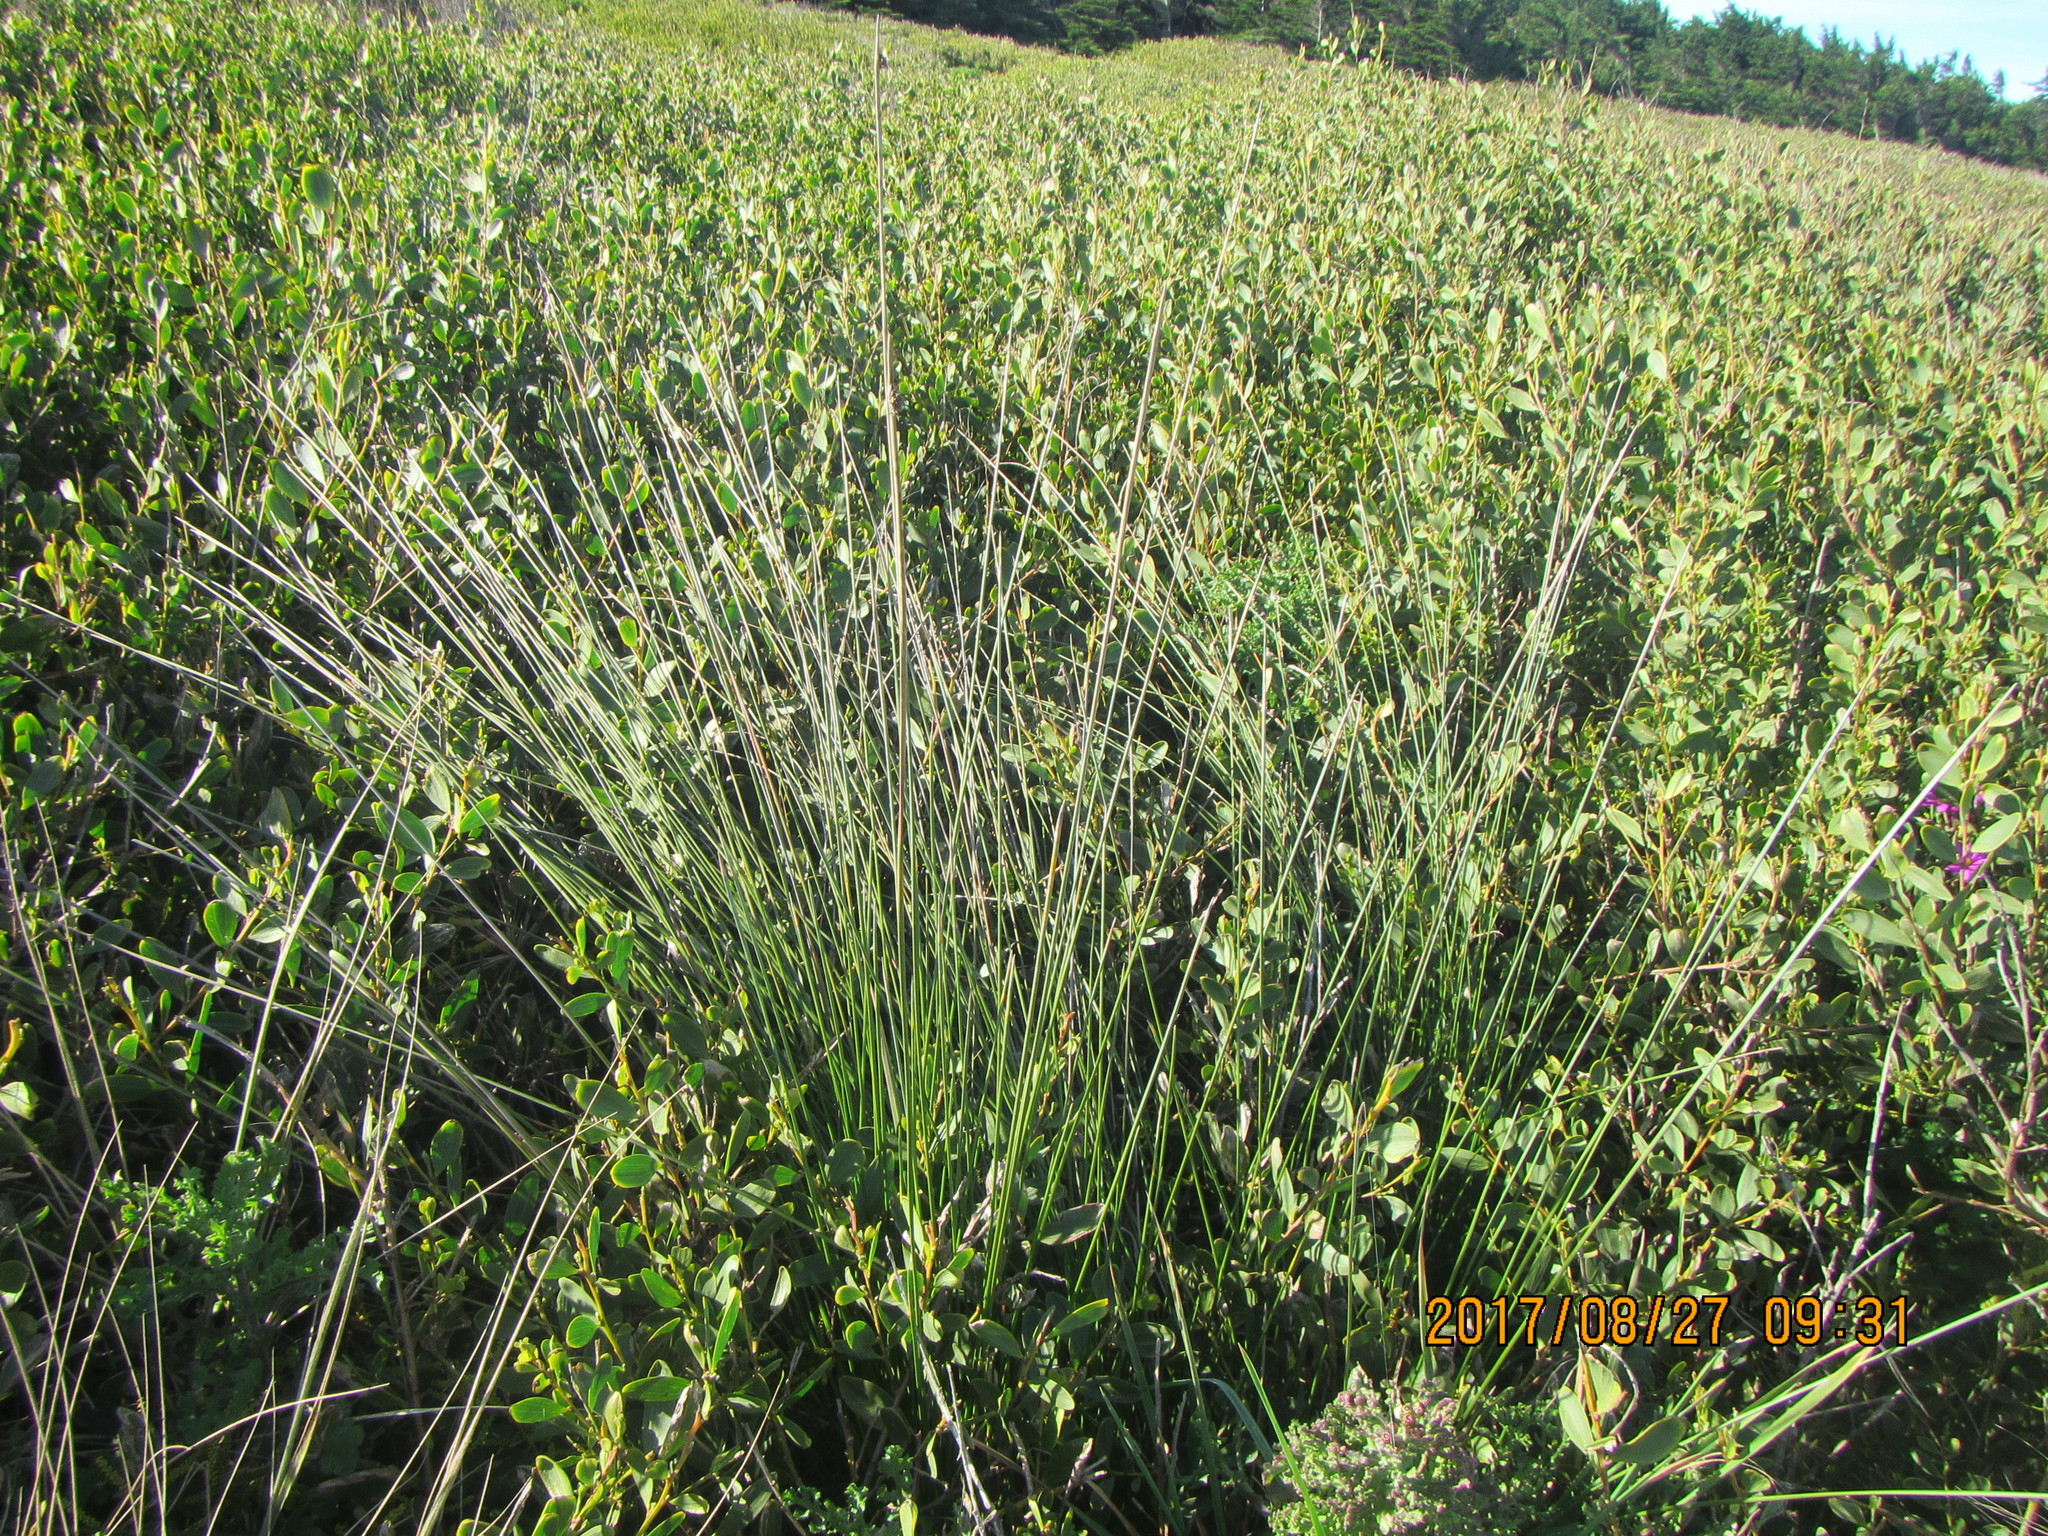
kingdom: Plantae
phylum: Tracheophyta
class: Liliopsida
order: Poales
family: Cyperaceae
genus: Ficinia
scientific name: Ficinia nodosa
